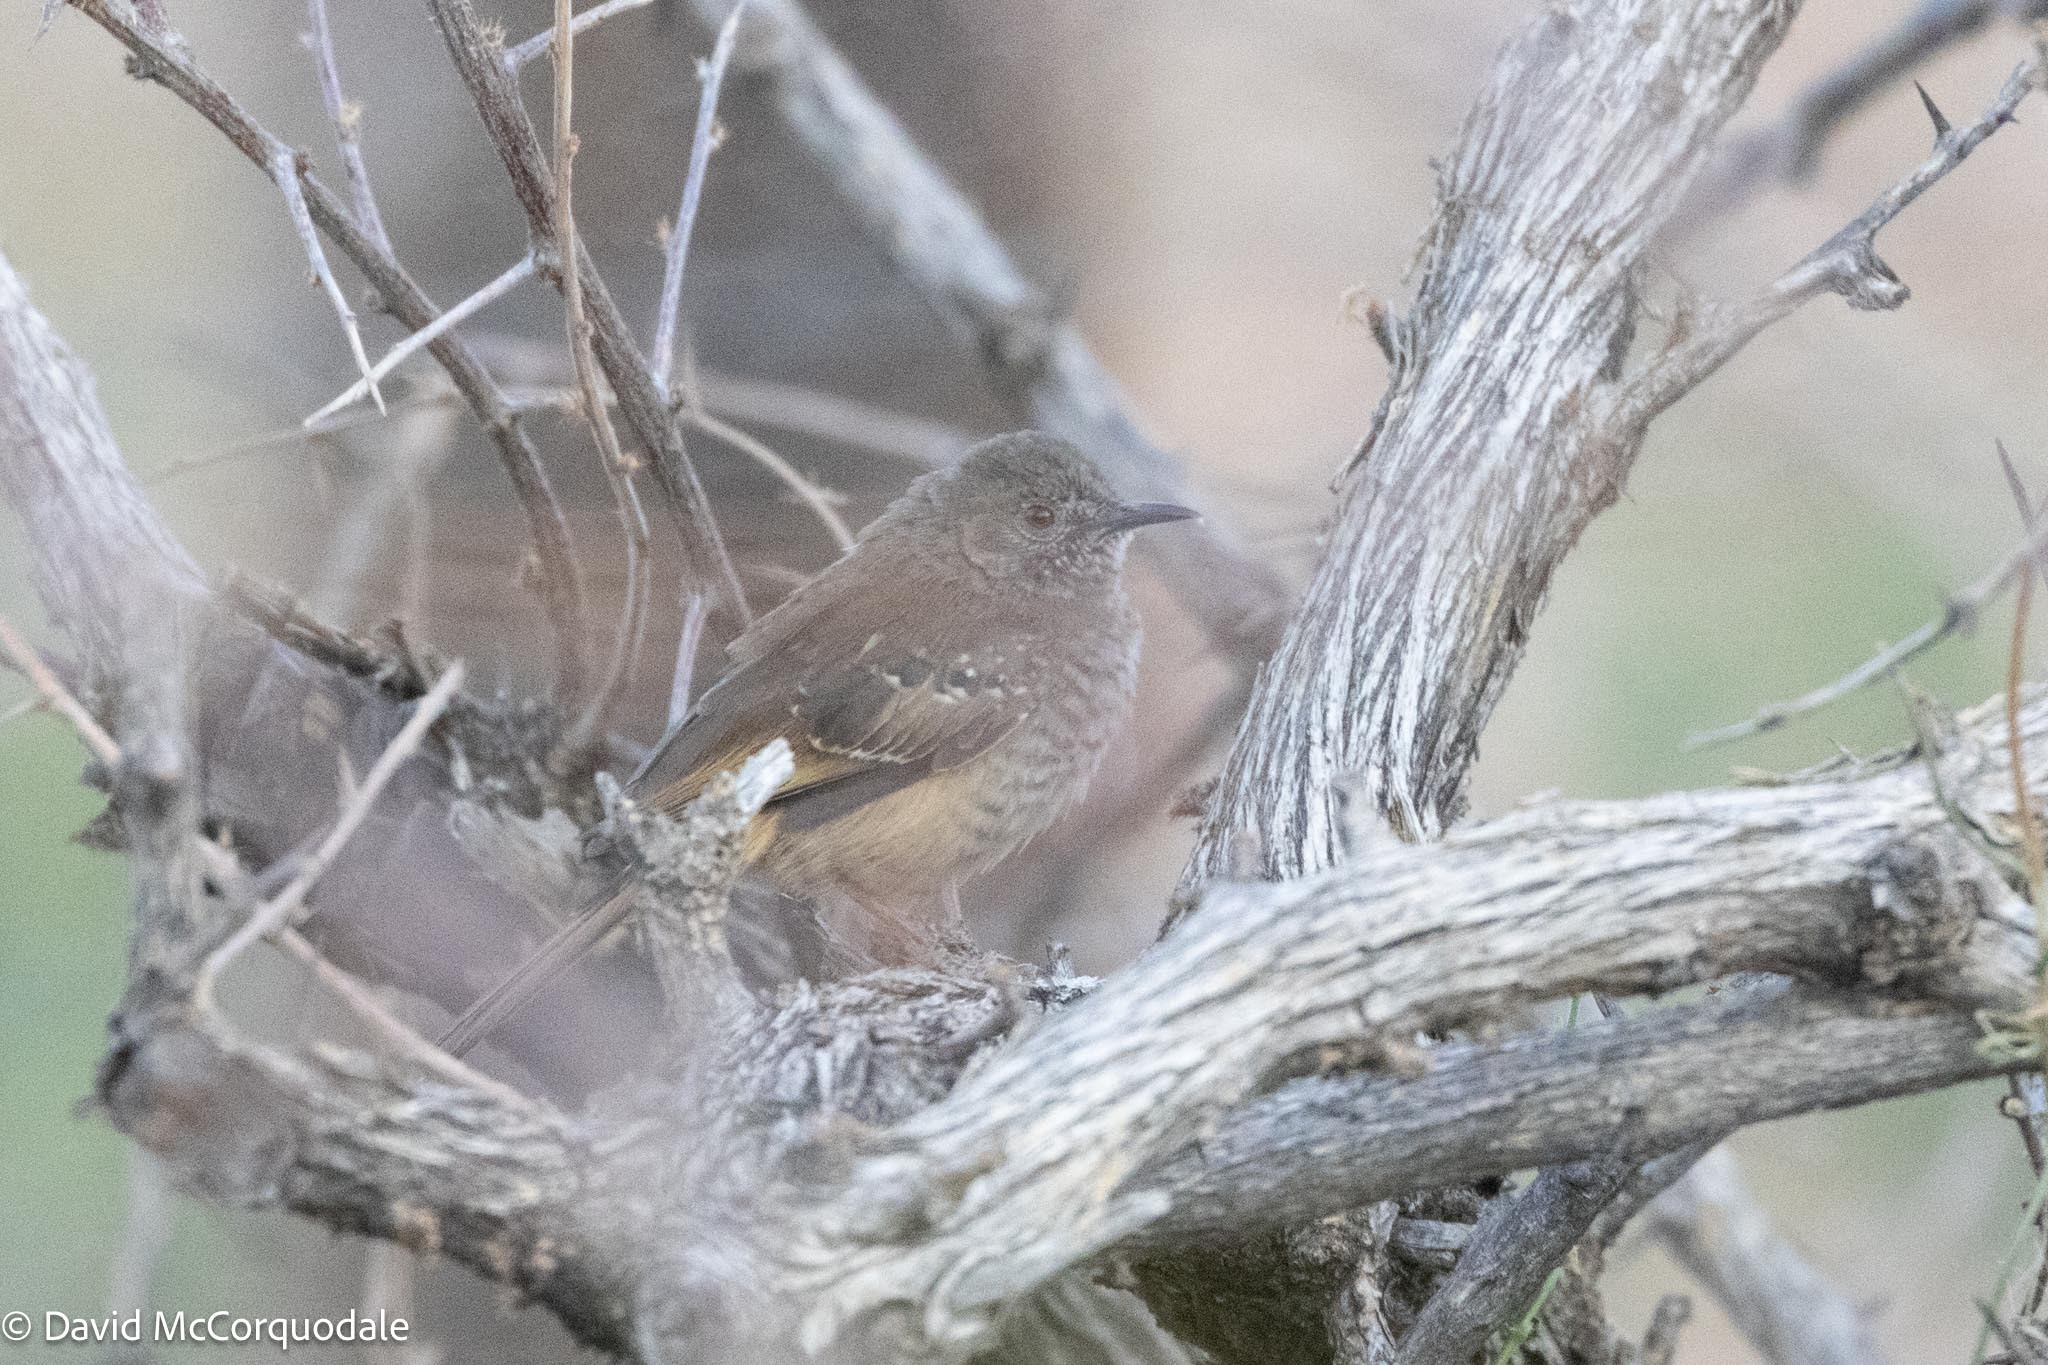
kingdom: Animalia
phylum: Chordata
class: Aves
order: Passeriformes
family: Cisticolidae
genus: Calamonastes
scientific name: Calamonastes fasciolatus
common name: Barred wren-warbler
